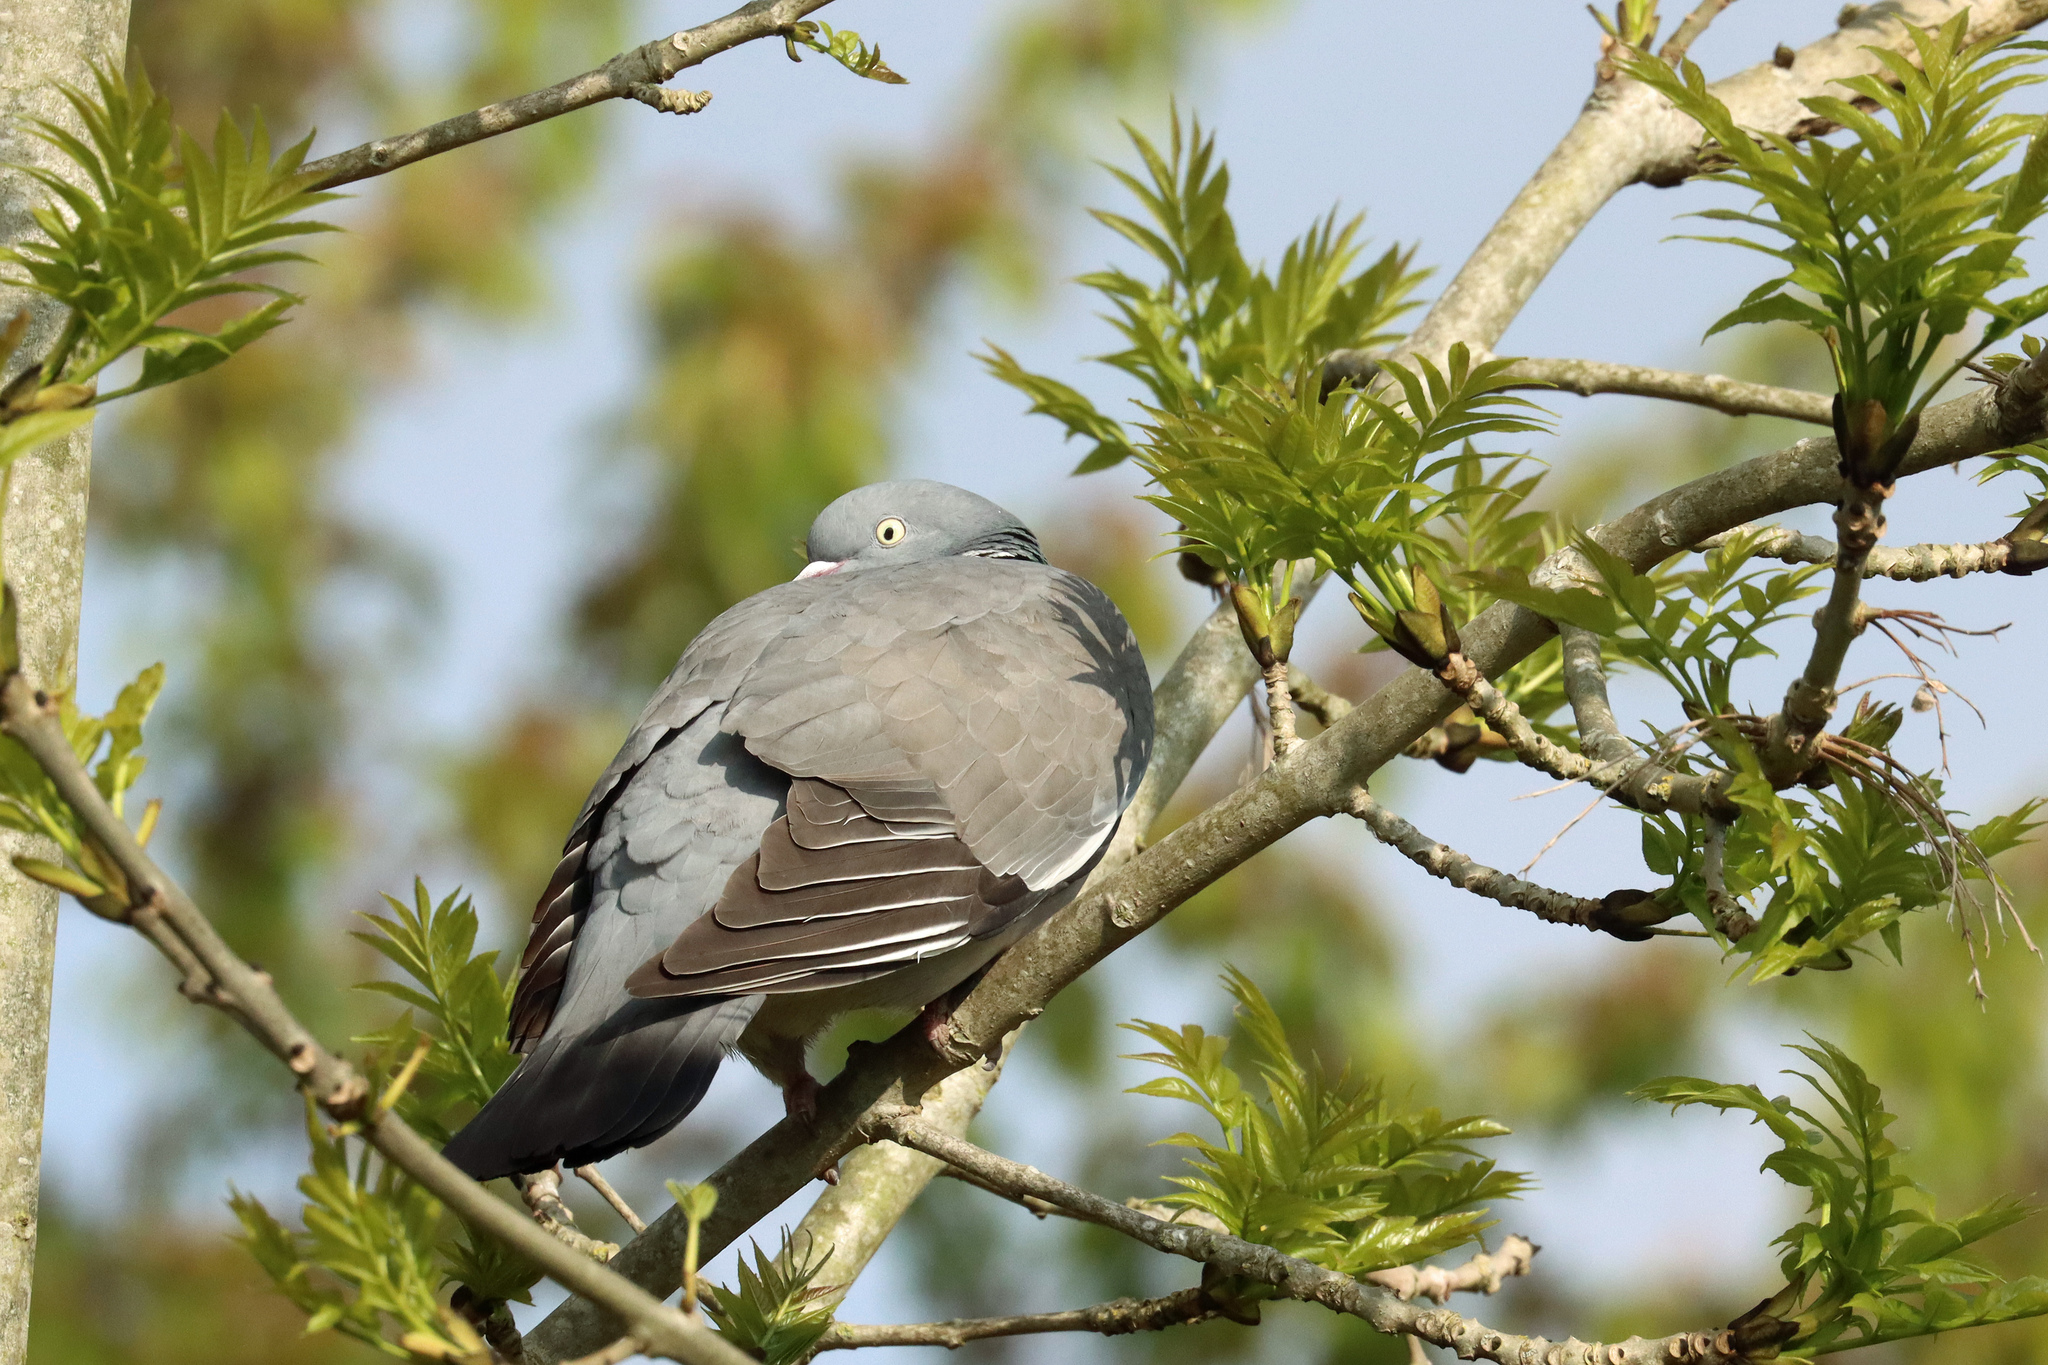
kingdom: Animalia
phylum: Chordata
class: Aves
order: Columbiformes
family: Columbidae
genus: Columba
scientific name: Columba palumbus
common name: Common wood pigeon
